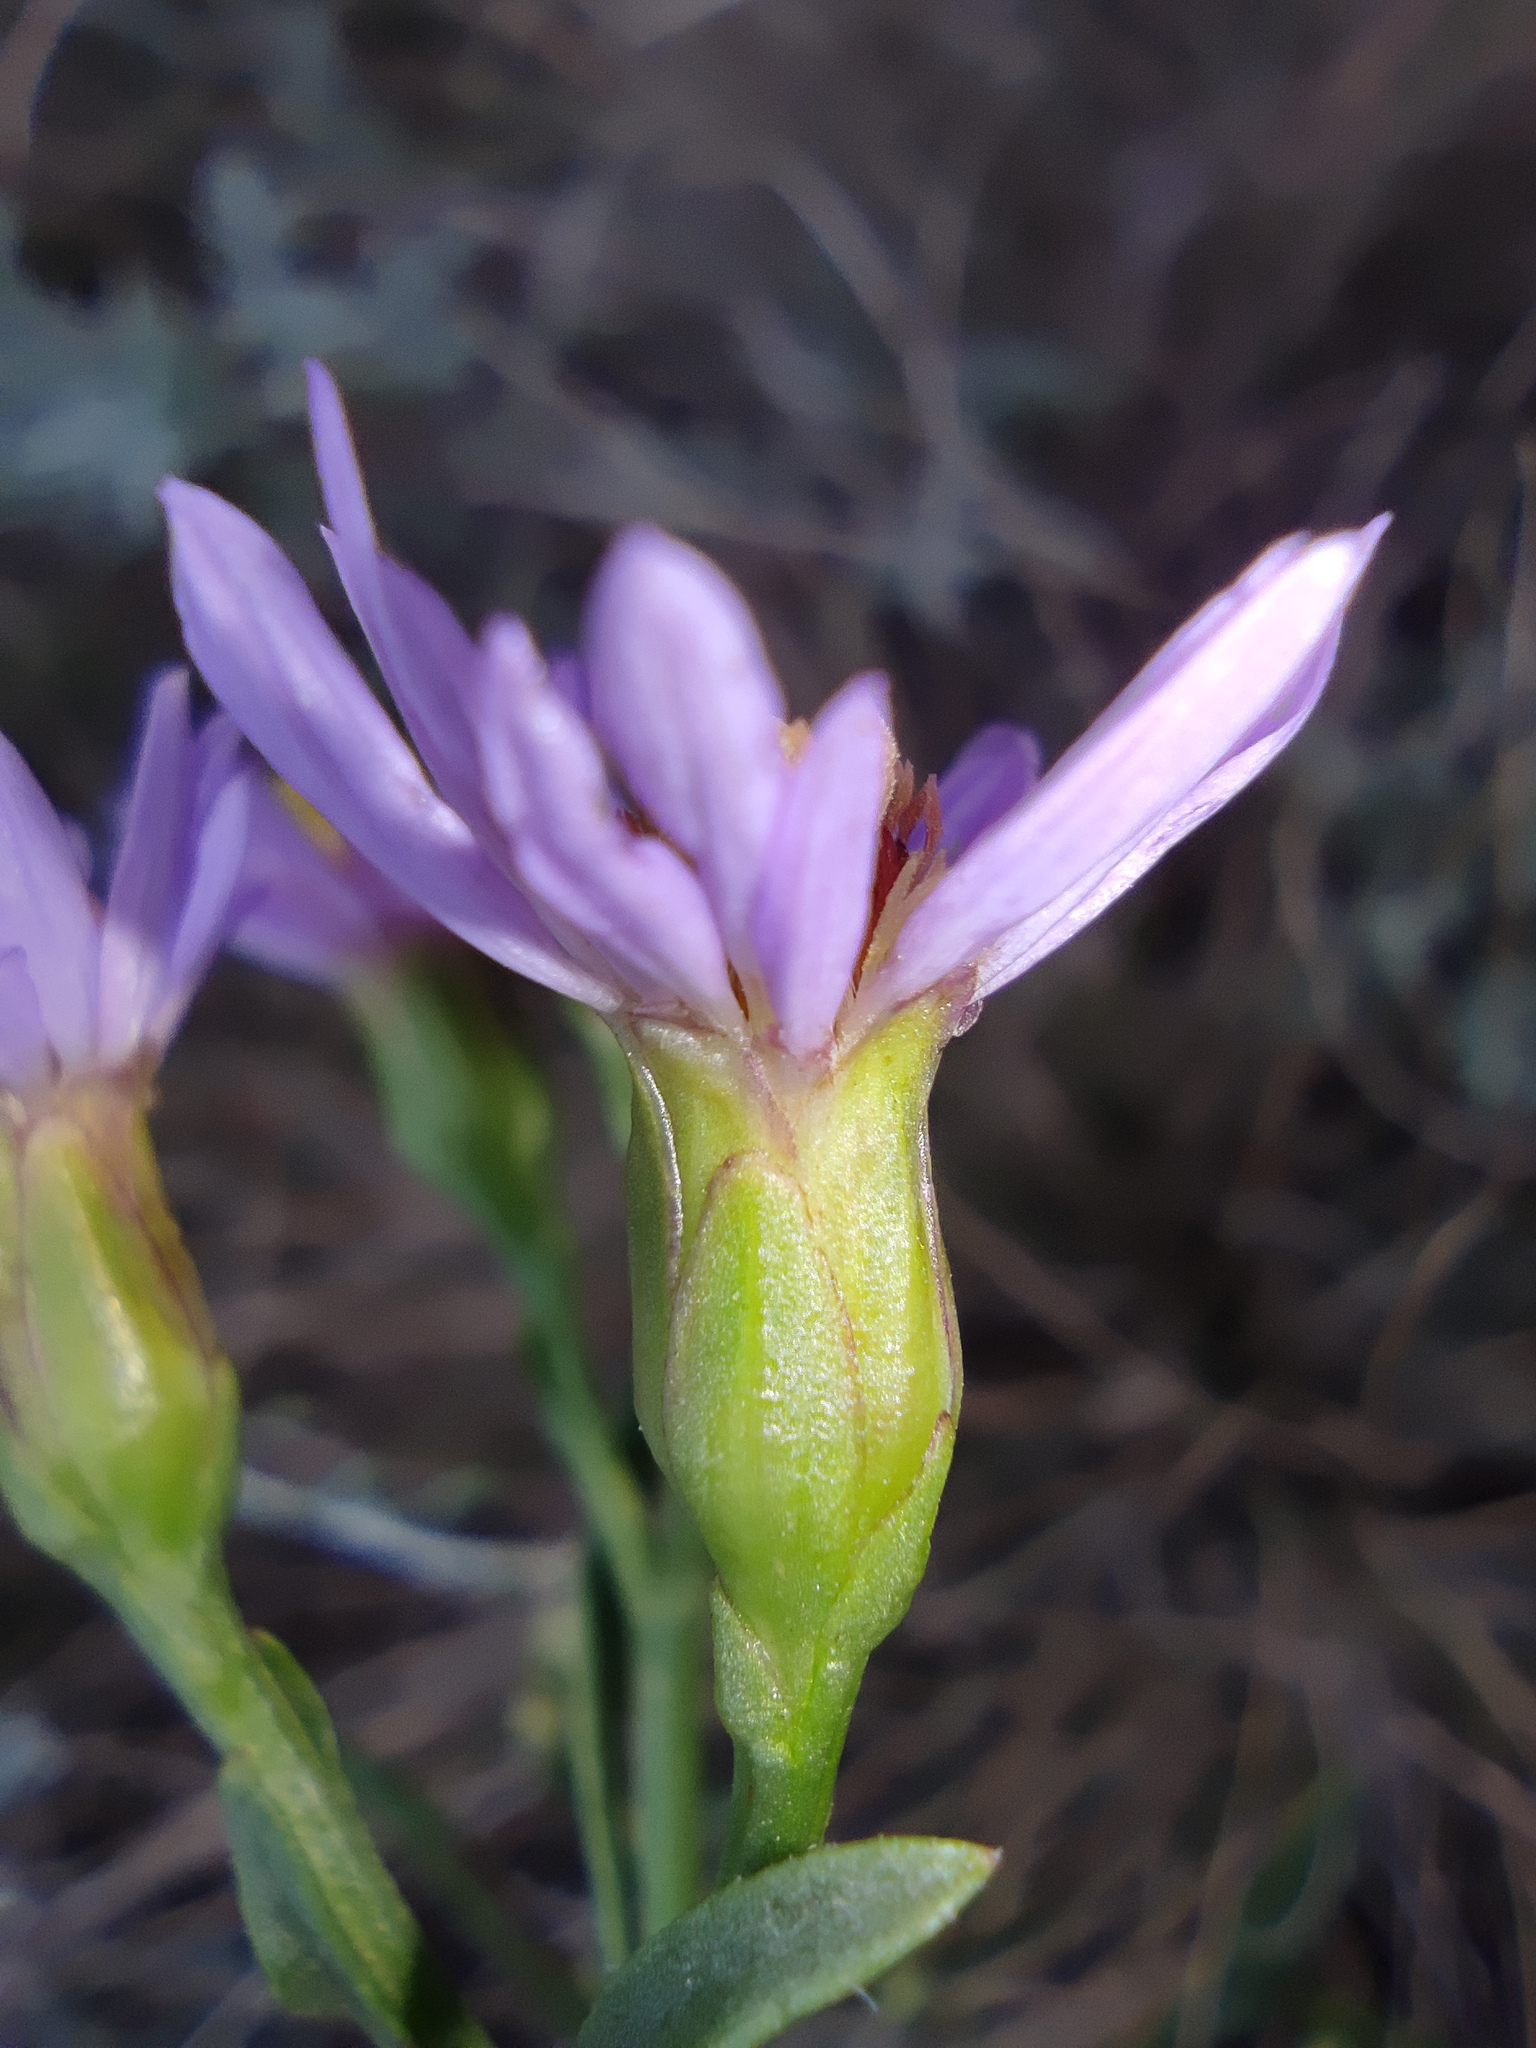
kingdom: Plantae
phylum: Tracheophyta
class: Magnoliopsida
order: Asterales
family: Asteraceae
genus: Tripolium
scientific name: Tripolium pannonicum
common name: Sea aster
